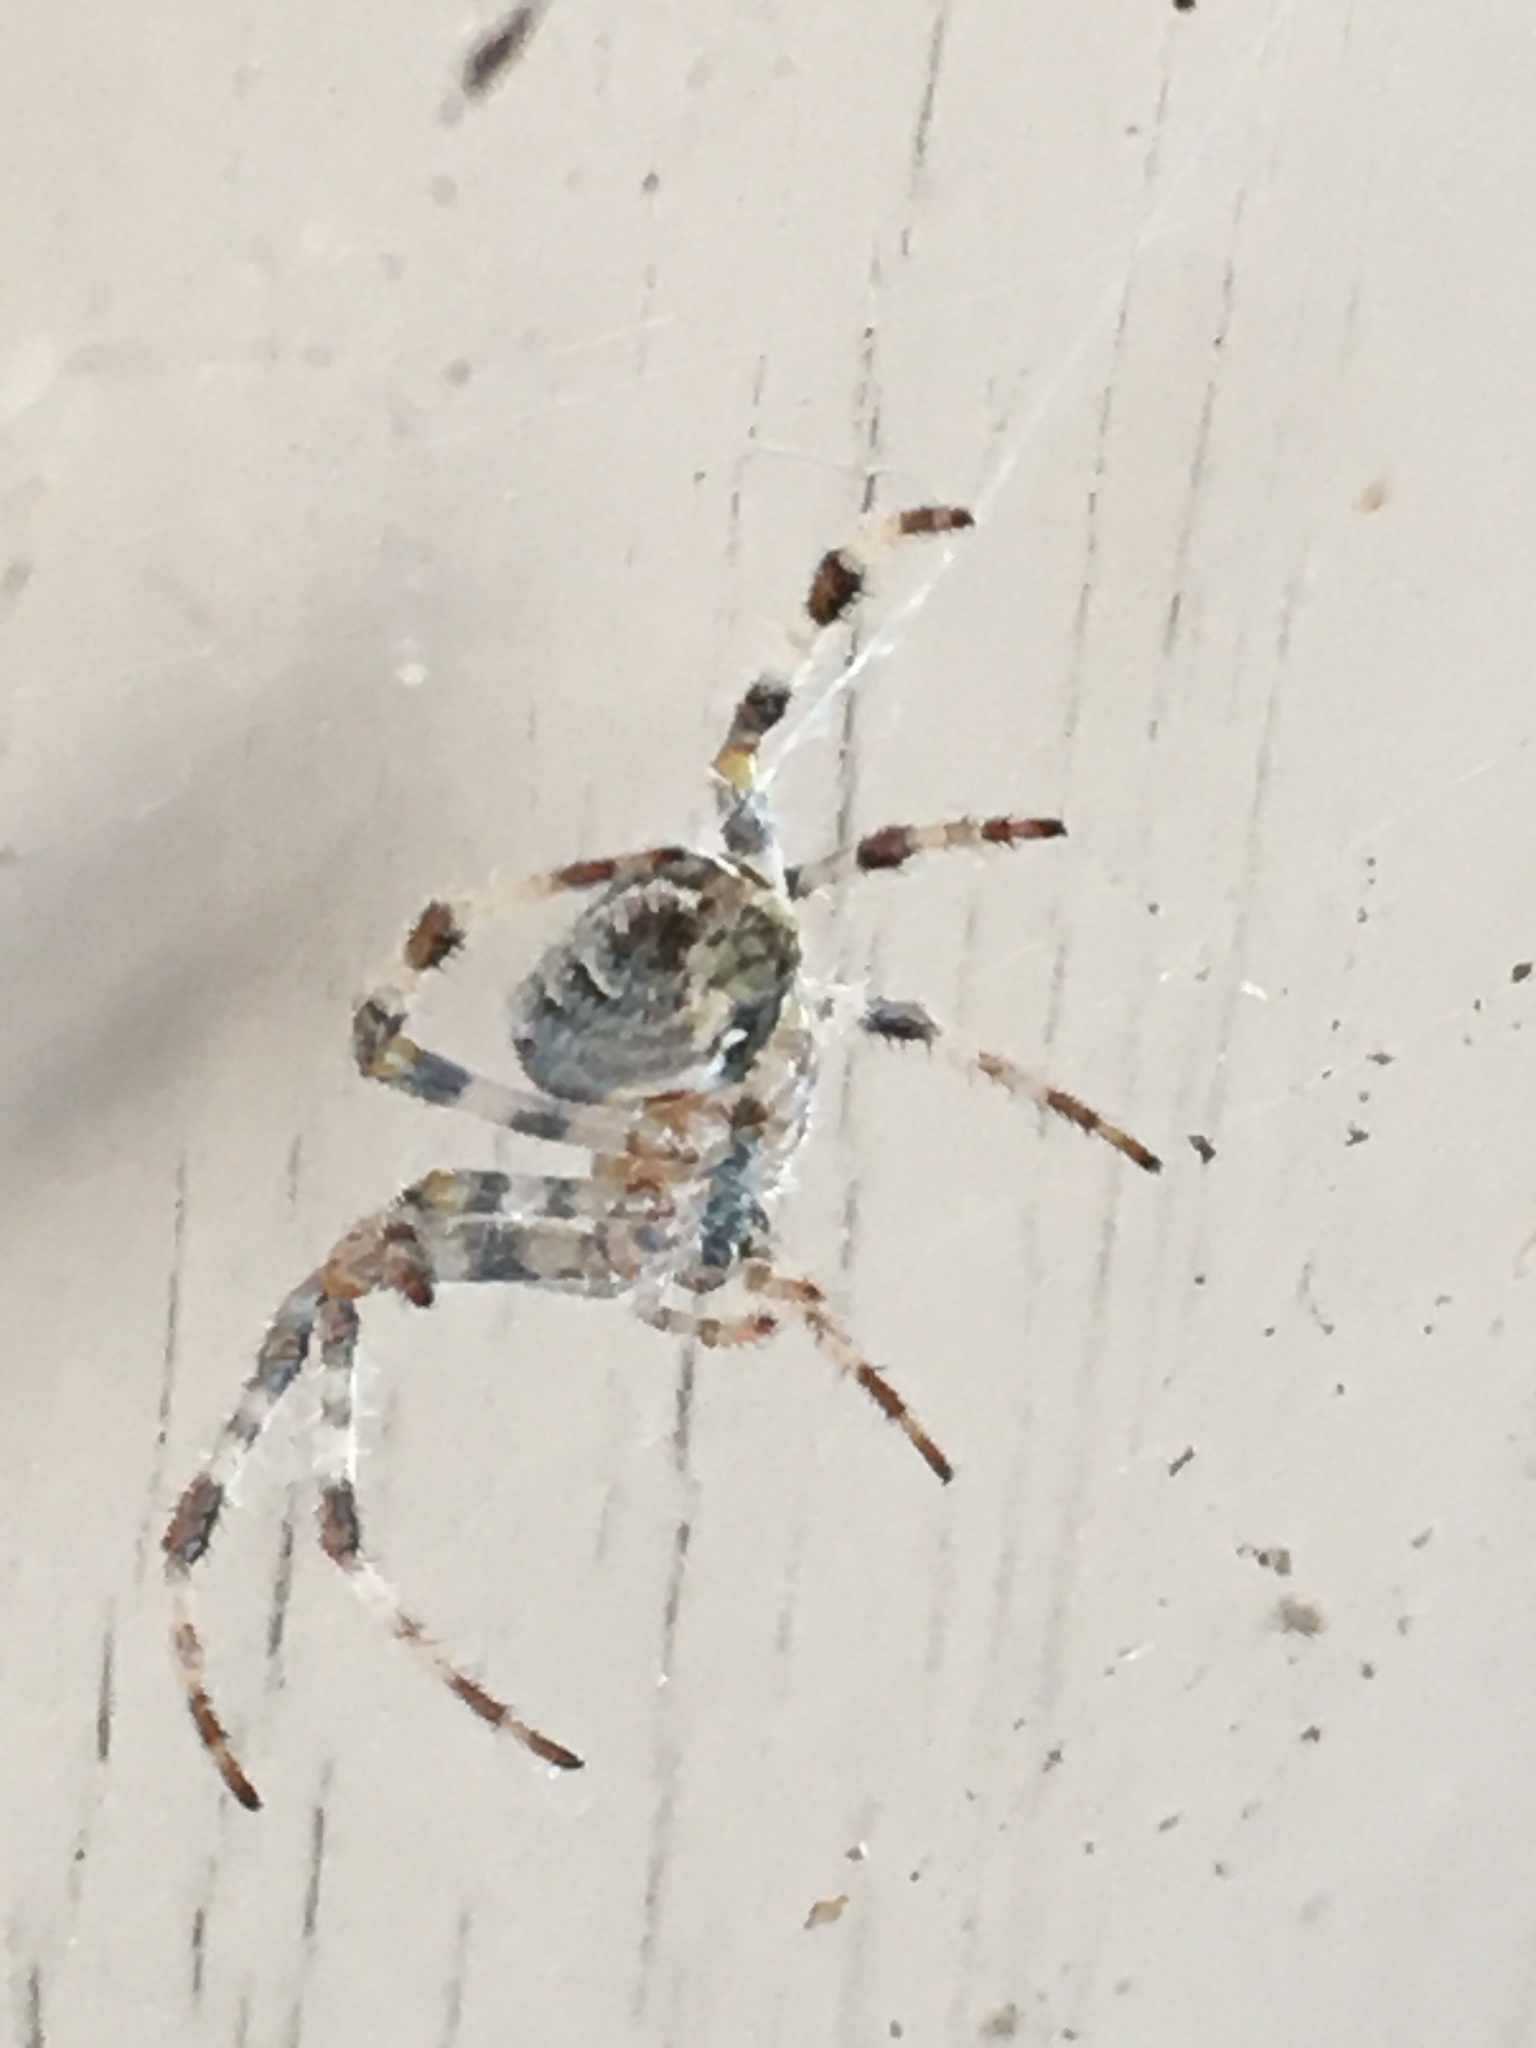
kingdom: Animalia
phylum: Arthropoda
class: Arachnida
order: Araneae
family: Araneidae
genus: Araneus
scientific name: Araneus diadematus
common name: Cross orbweaver
